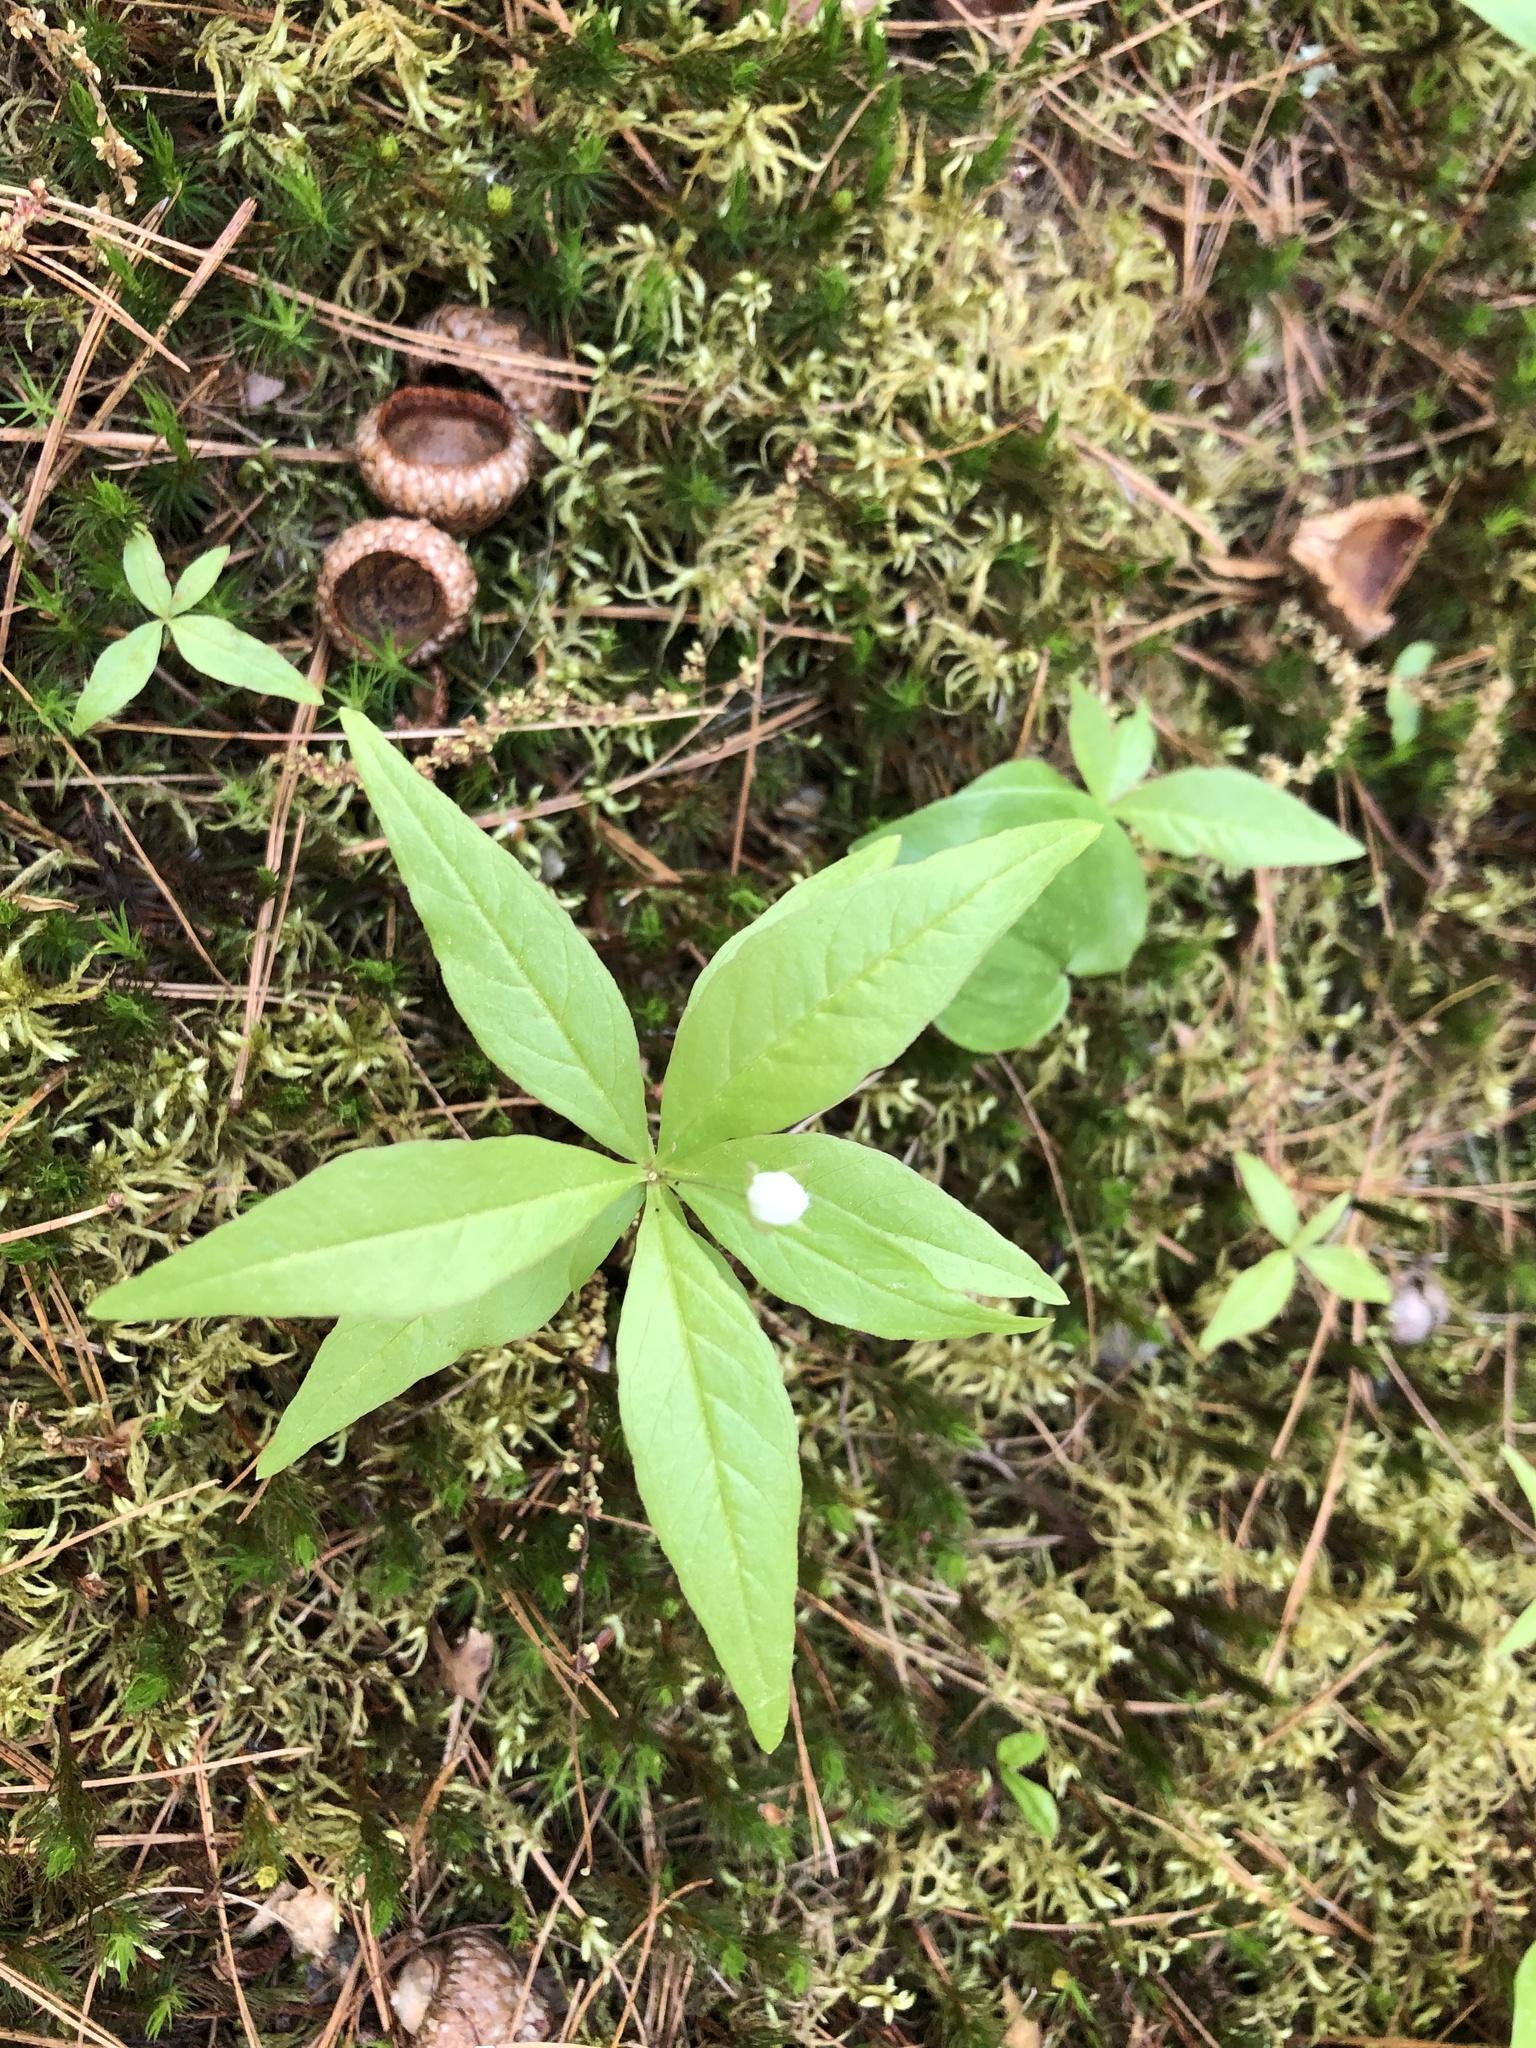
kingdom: Plantae
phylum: Tracheophyta
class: Magnoliopsida
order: Ericales
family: Primulaceae
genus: Lysimachia
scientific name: Lysimachia borealis
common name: American starflower
